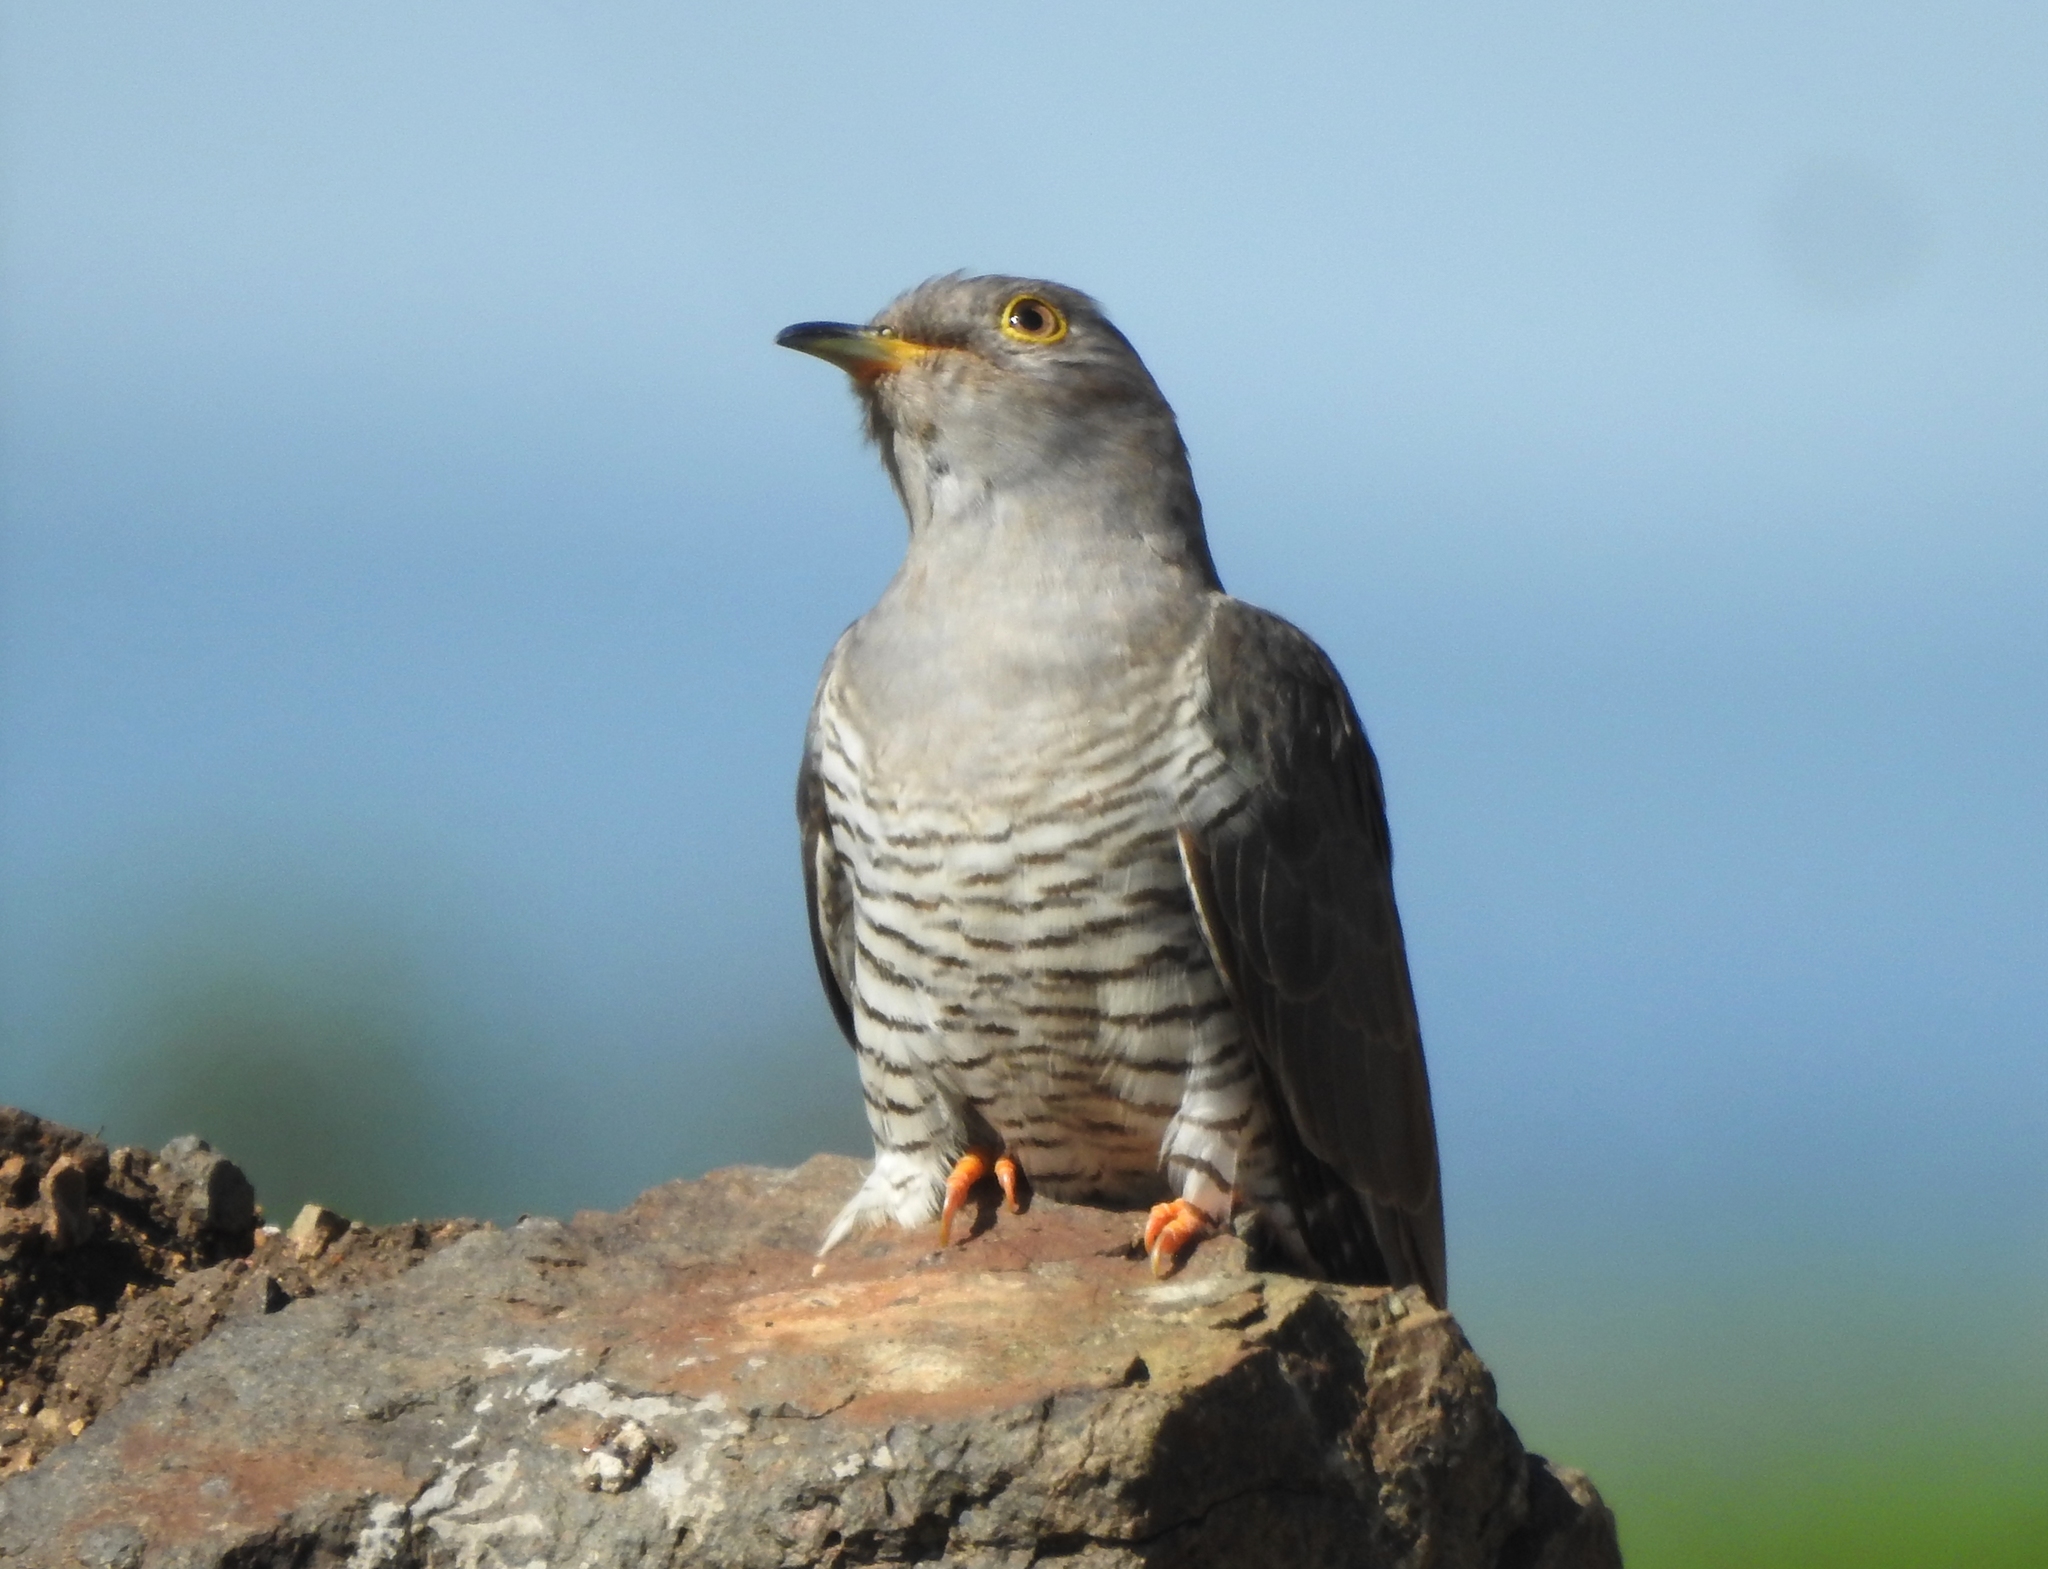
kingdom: Animalia
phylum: Chordata
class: Aves
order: Cuculiformes
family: Cuculidae
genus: Cuculus
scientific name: Cuculus canorus
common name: Common cuckoo
